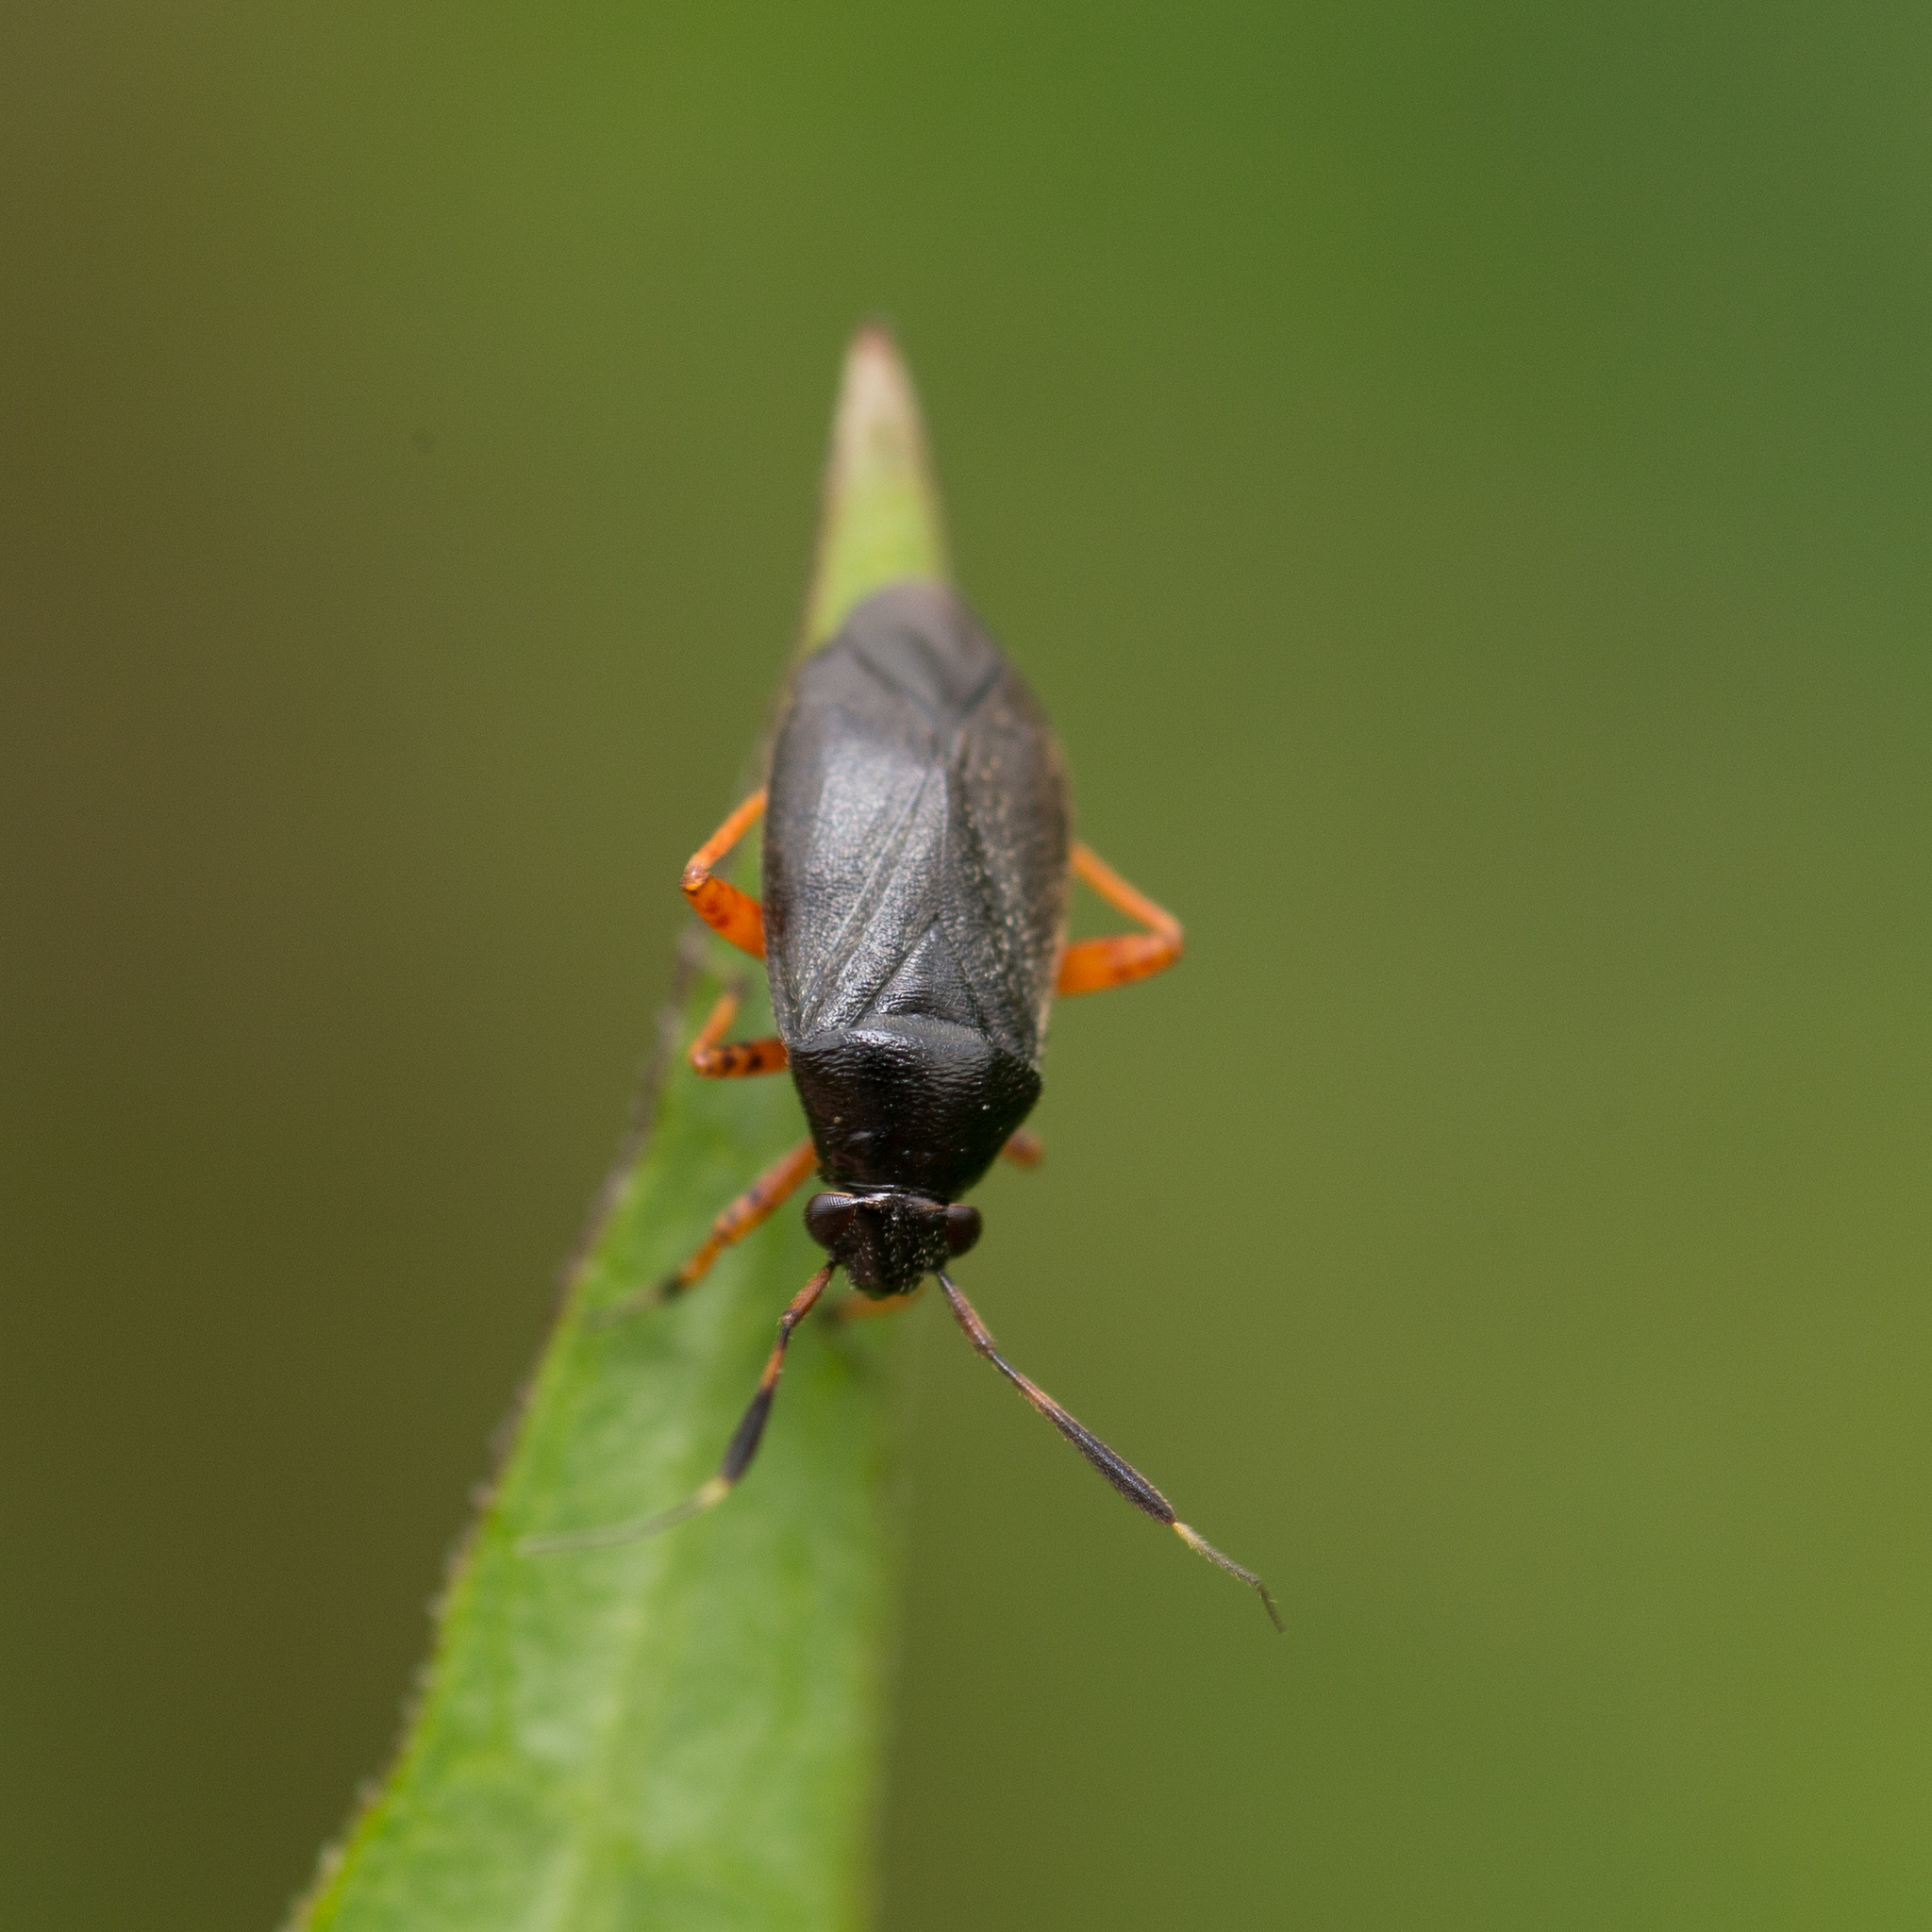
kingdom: Animalia
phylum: Arthropoda
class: Insecta
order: Hemiptera
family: Miridae
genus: Capsus
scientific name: Capsus ater
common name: Black plant bug
